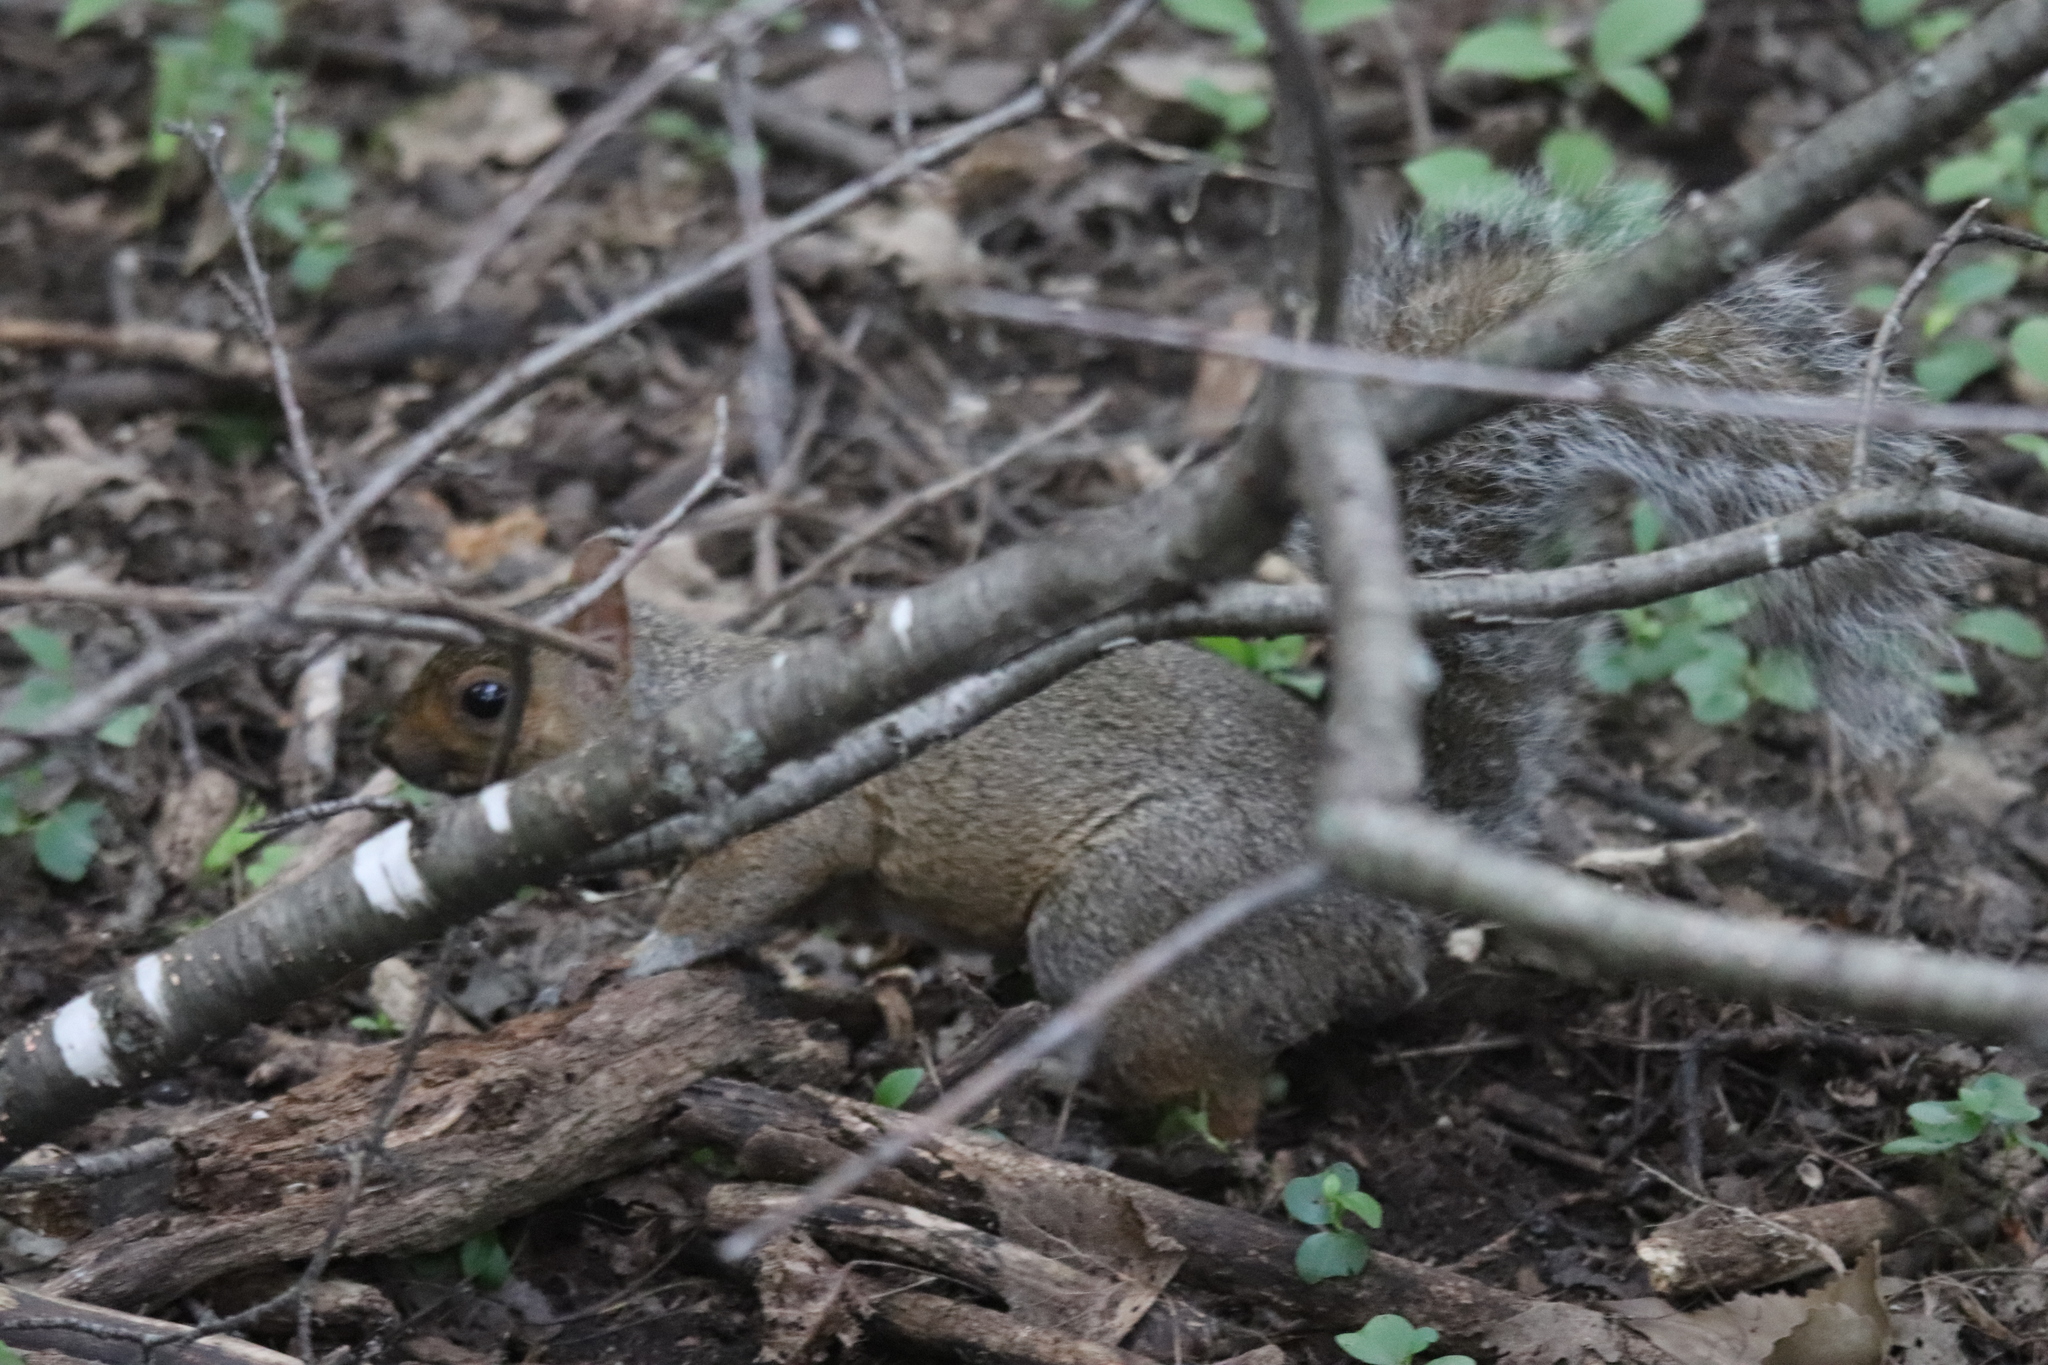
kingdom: Animalia
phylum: Chordata
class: Mammalia
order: Rodentia
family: Sciuridae
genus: Sciurus
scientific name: Sciurus carolinensis
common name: Eastern gray squirrel
